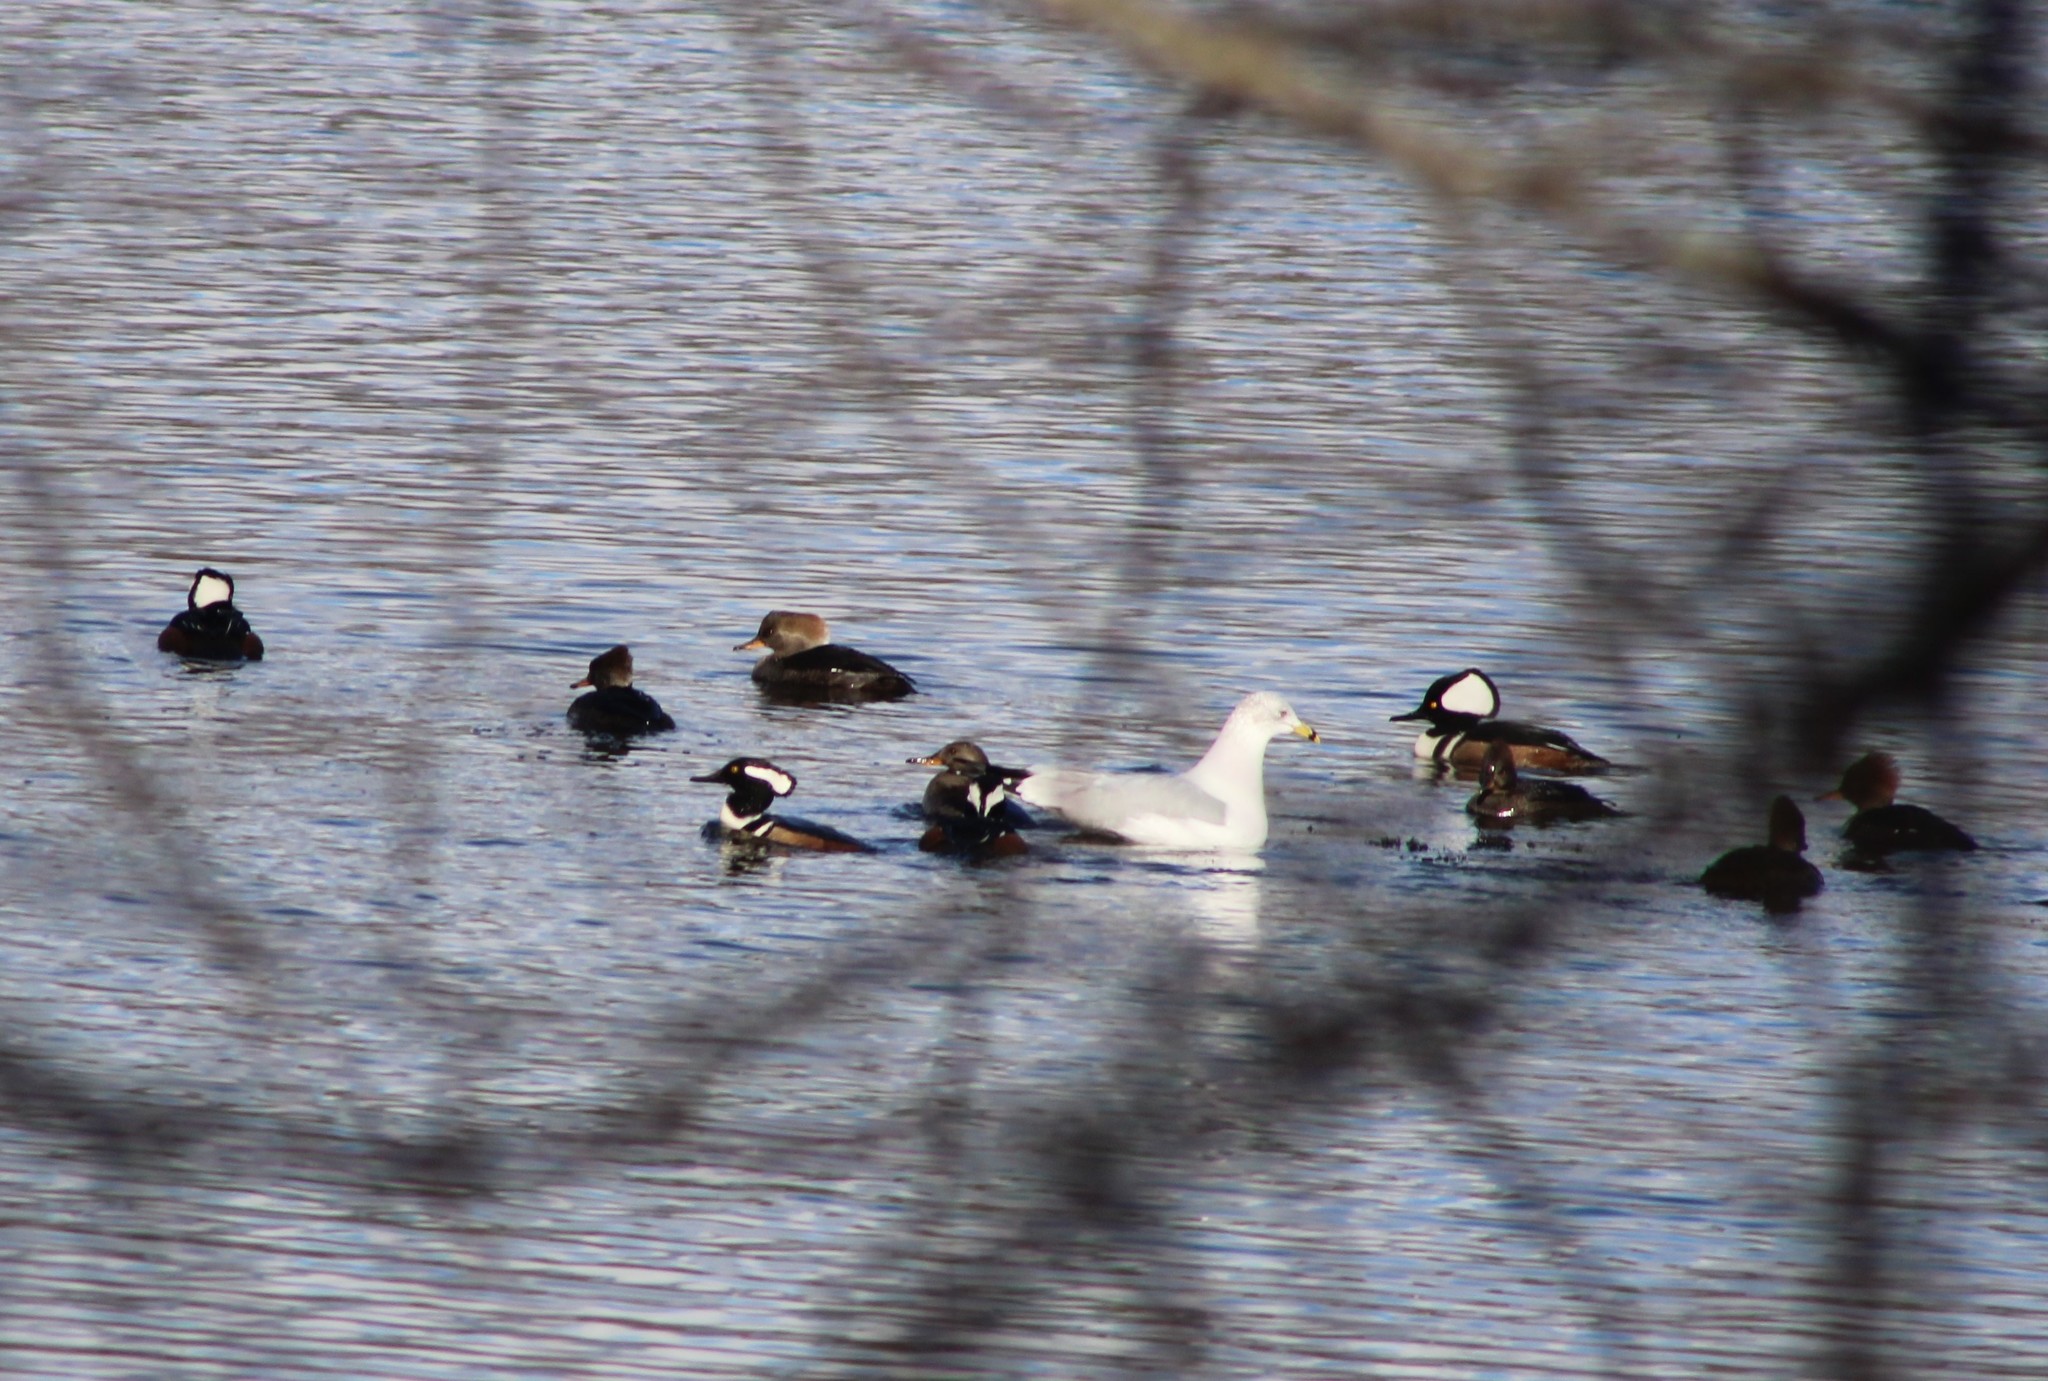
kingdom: Animalia
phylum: Chordata
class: Aves
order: Anseriformes
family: Anatidae
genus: Lophodytes
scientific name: Lophodytes cucullatus
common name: Hooded merganser
